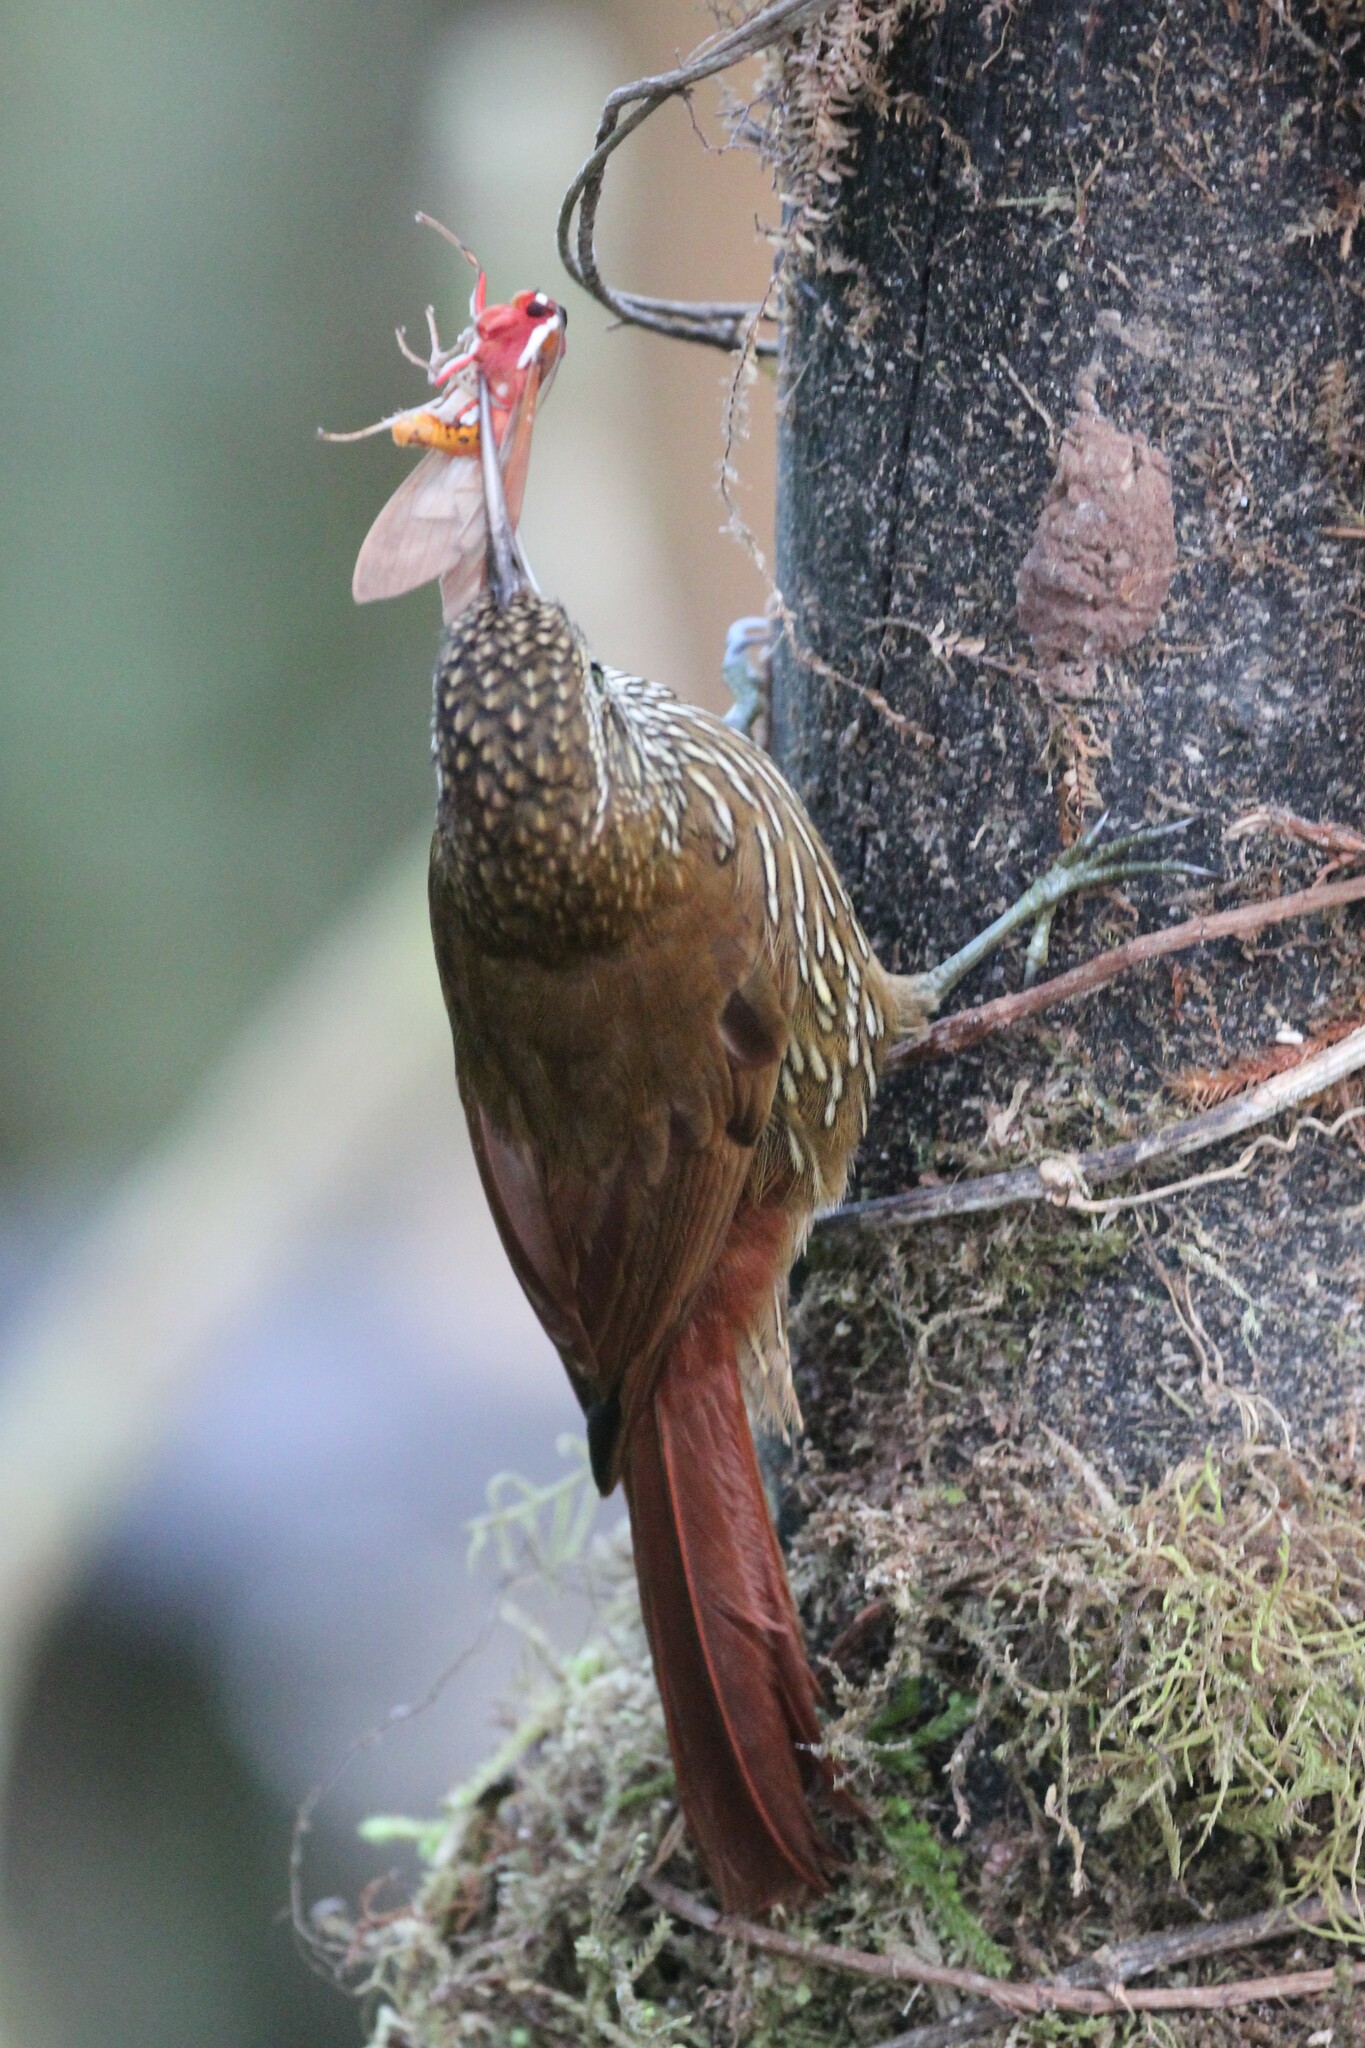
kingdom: Animalia
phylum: Chordata
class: Aves
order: Passeriformes
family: Furnariidae
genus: Lepidocolaptes
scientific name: Lepidocolaptes lacrymiger
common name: Montane woodcreeper
